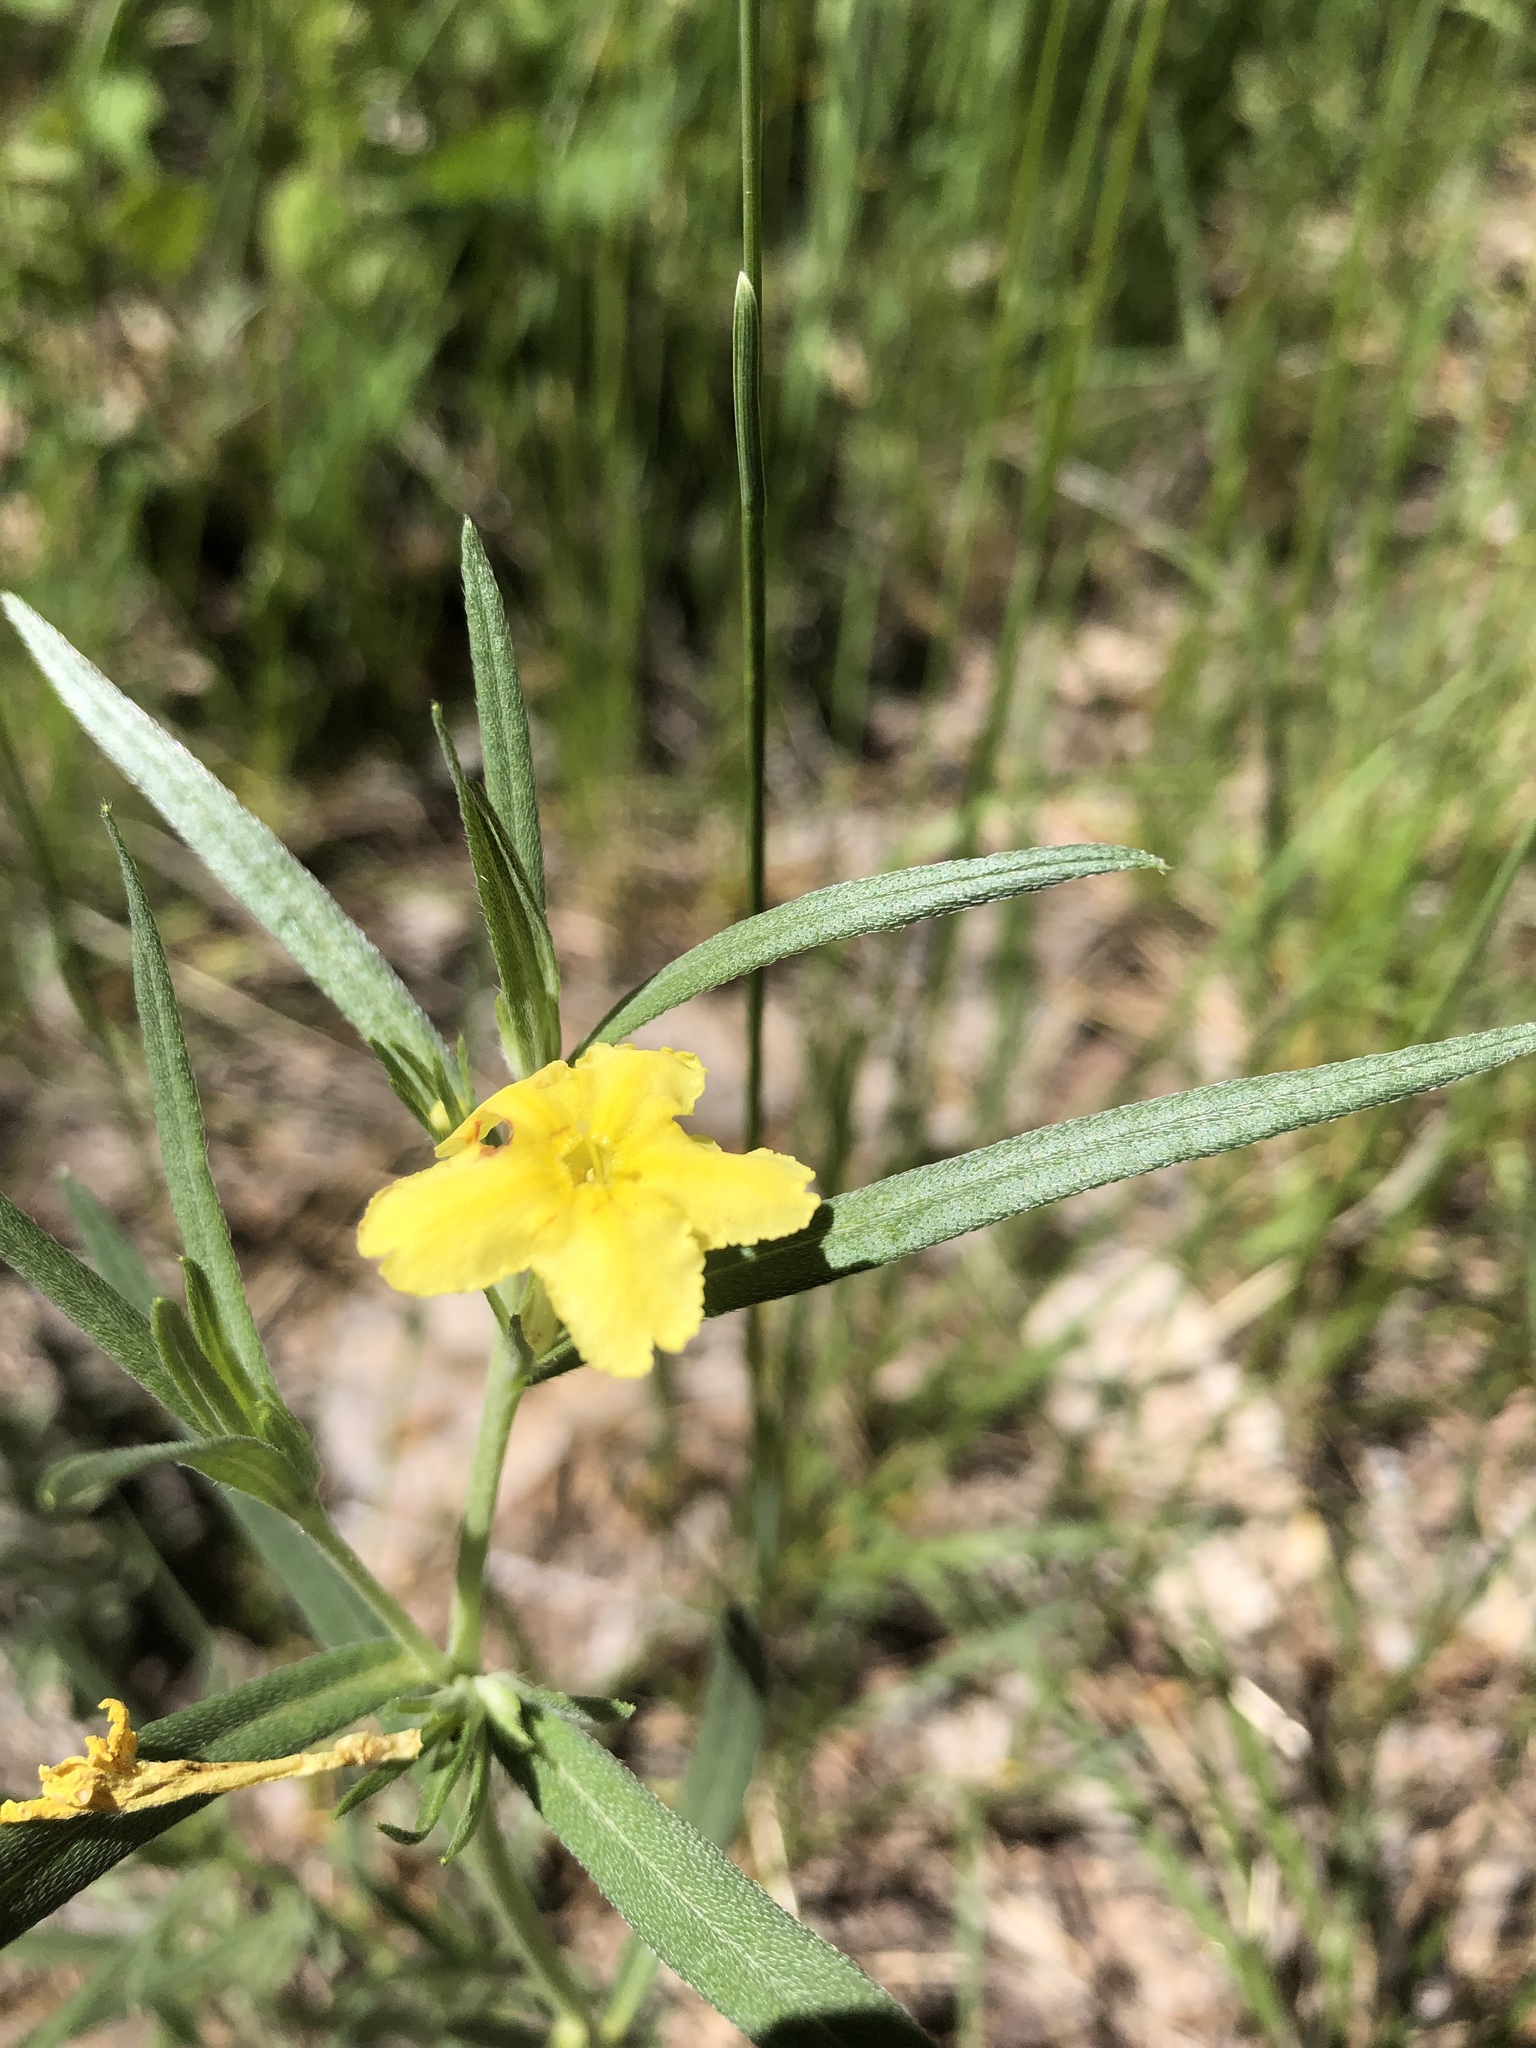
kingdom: Plantae
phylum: Tracheophyta
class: Magnoliopsida
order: Boraginales
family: Boraginaceae
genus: Lithospermum
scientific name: Lithospermum incisum
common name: Fringed gromwell
